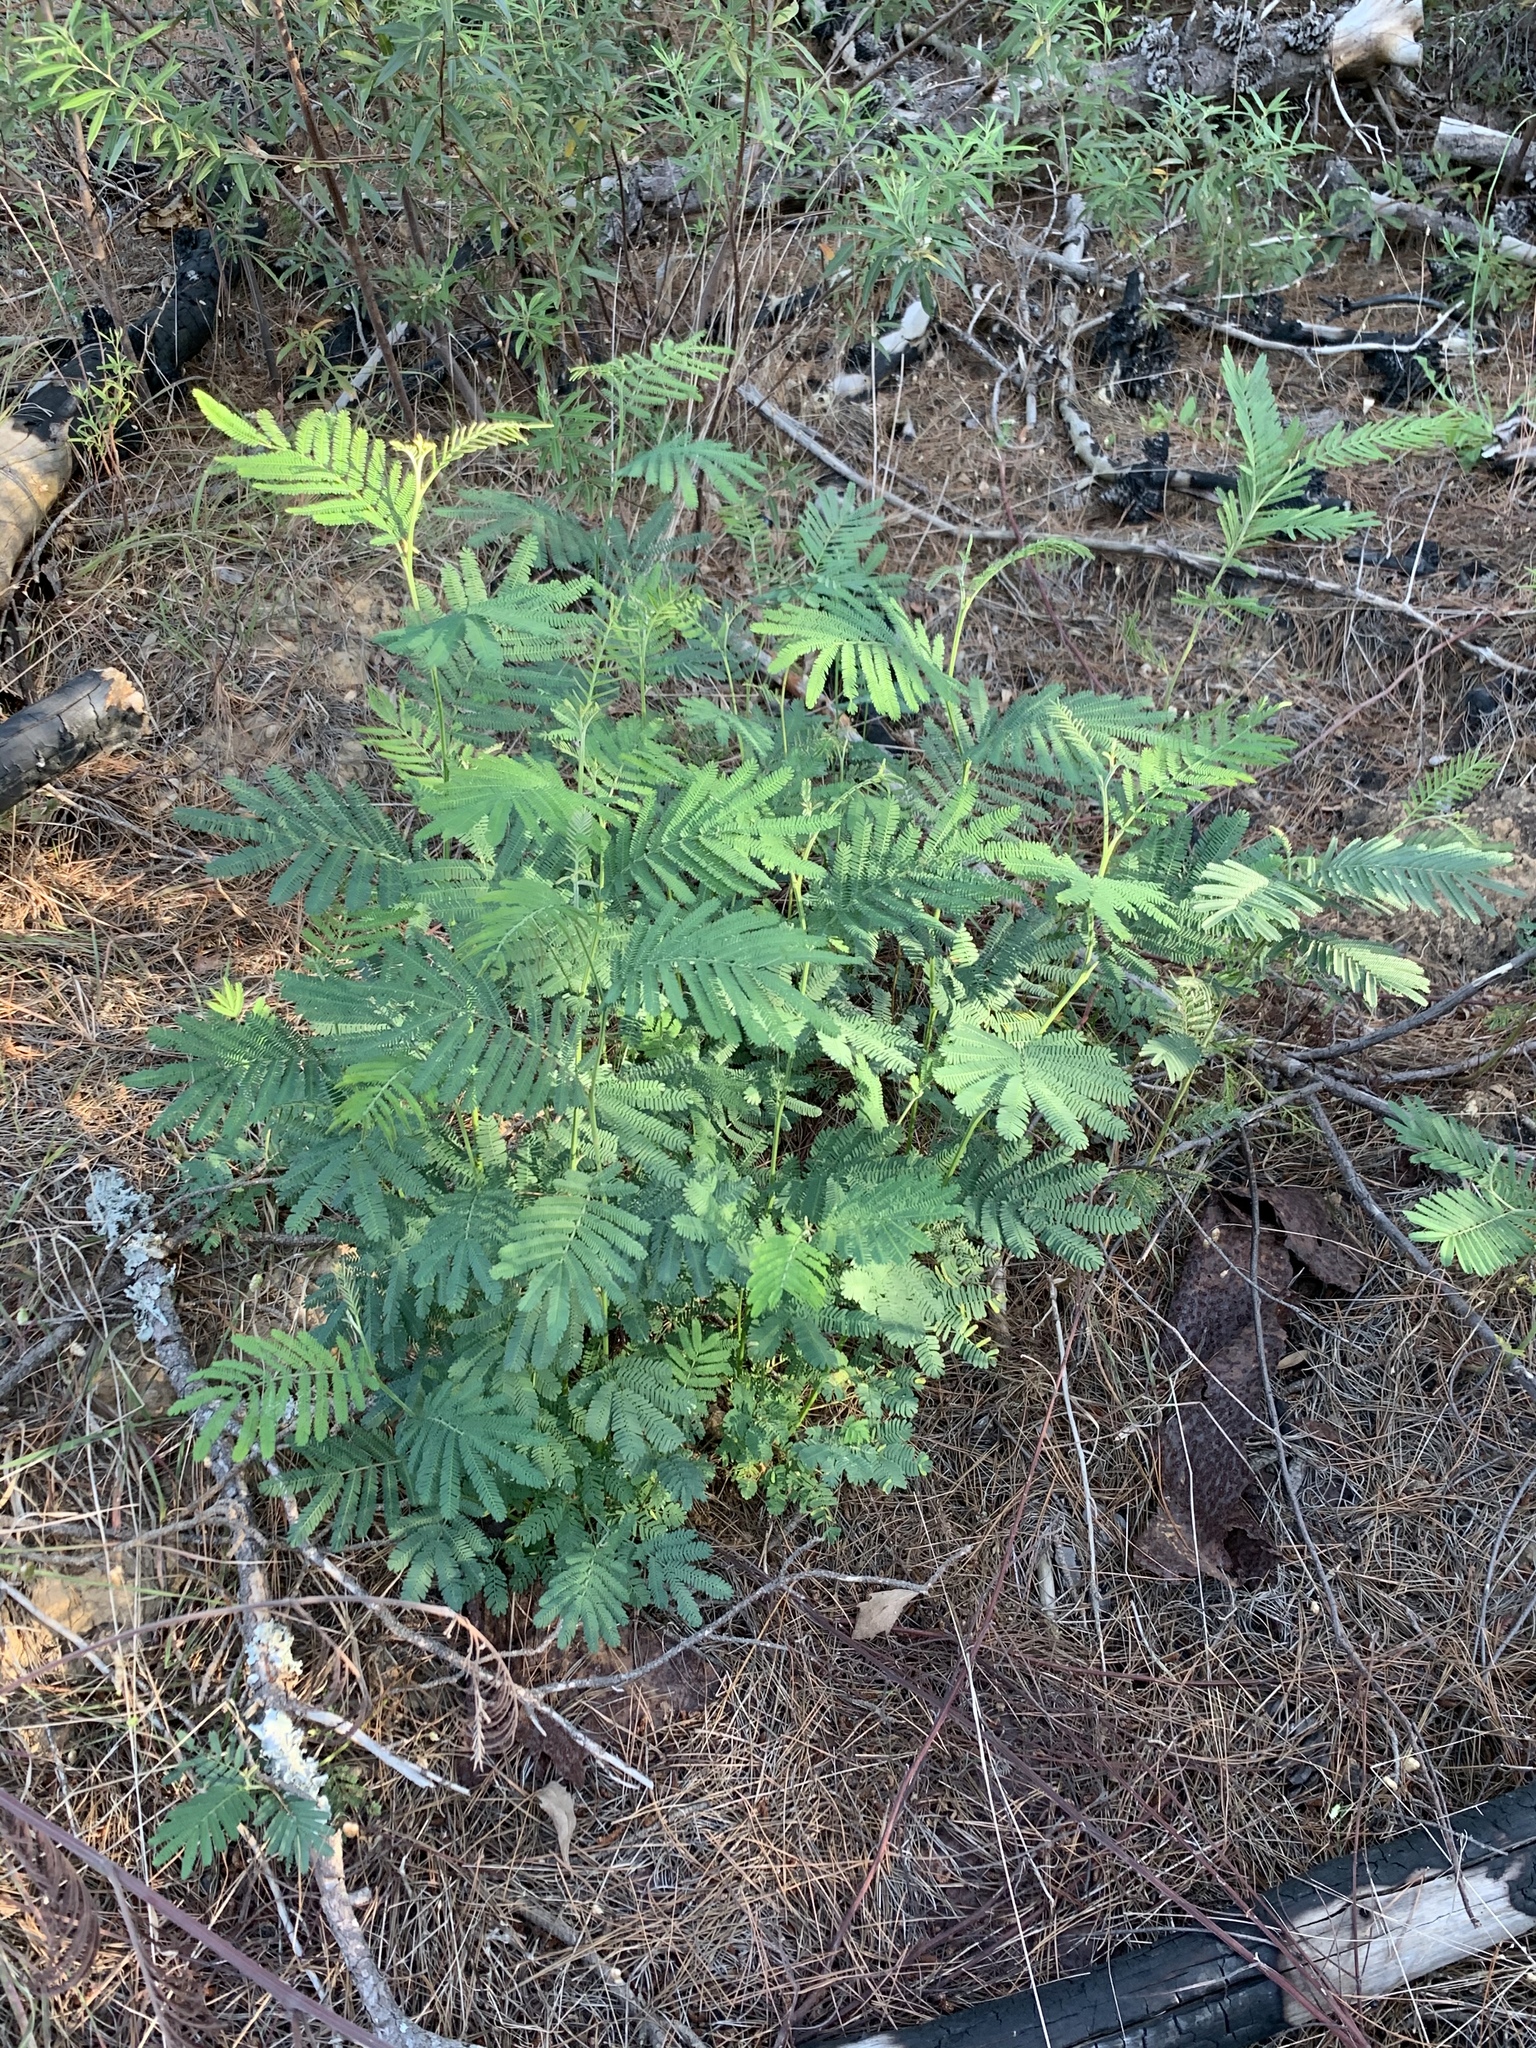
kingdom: Plantae
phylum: Tracheophyta
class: Magnoliopsida
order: Fabales
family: Fabaceae
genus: Acacia
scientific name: Acacia mearnsii
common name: Black wattle
